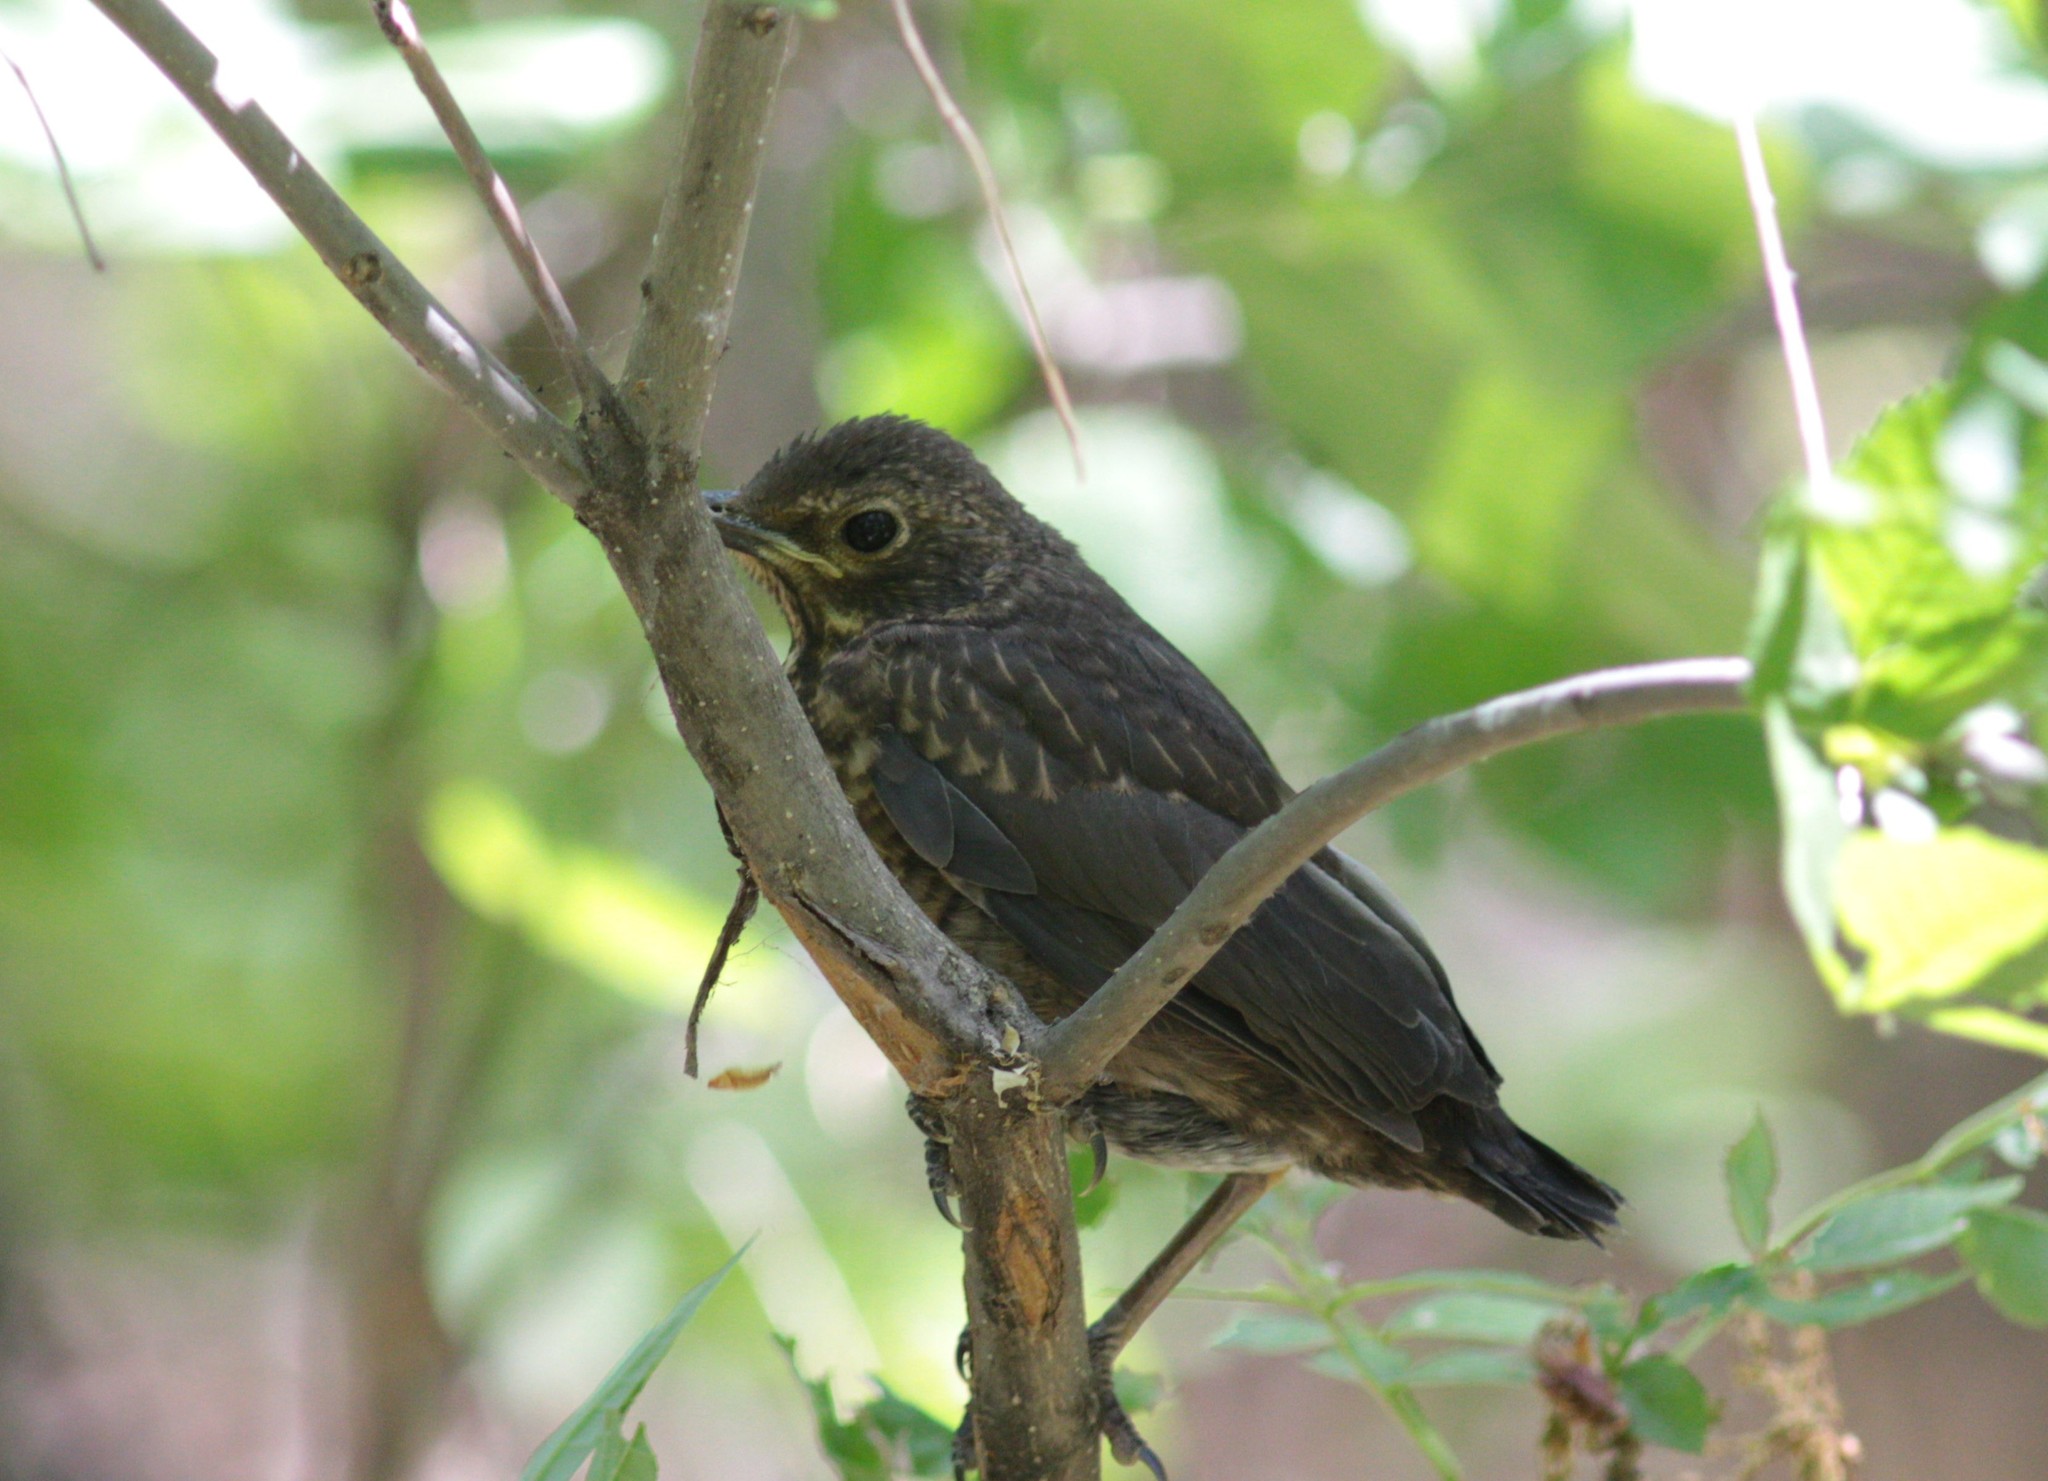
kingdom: Animalia
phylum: Chordata
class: Aves
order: Passeriformes
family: Turdidae
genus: Turdus
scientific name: Turdus merula
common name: Common blackbird
